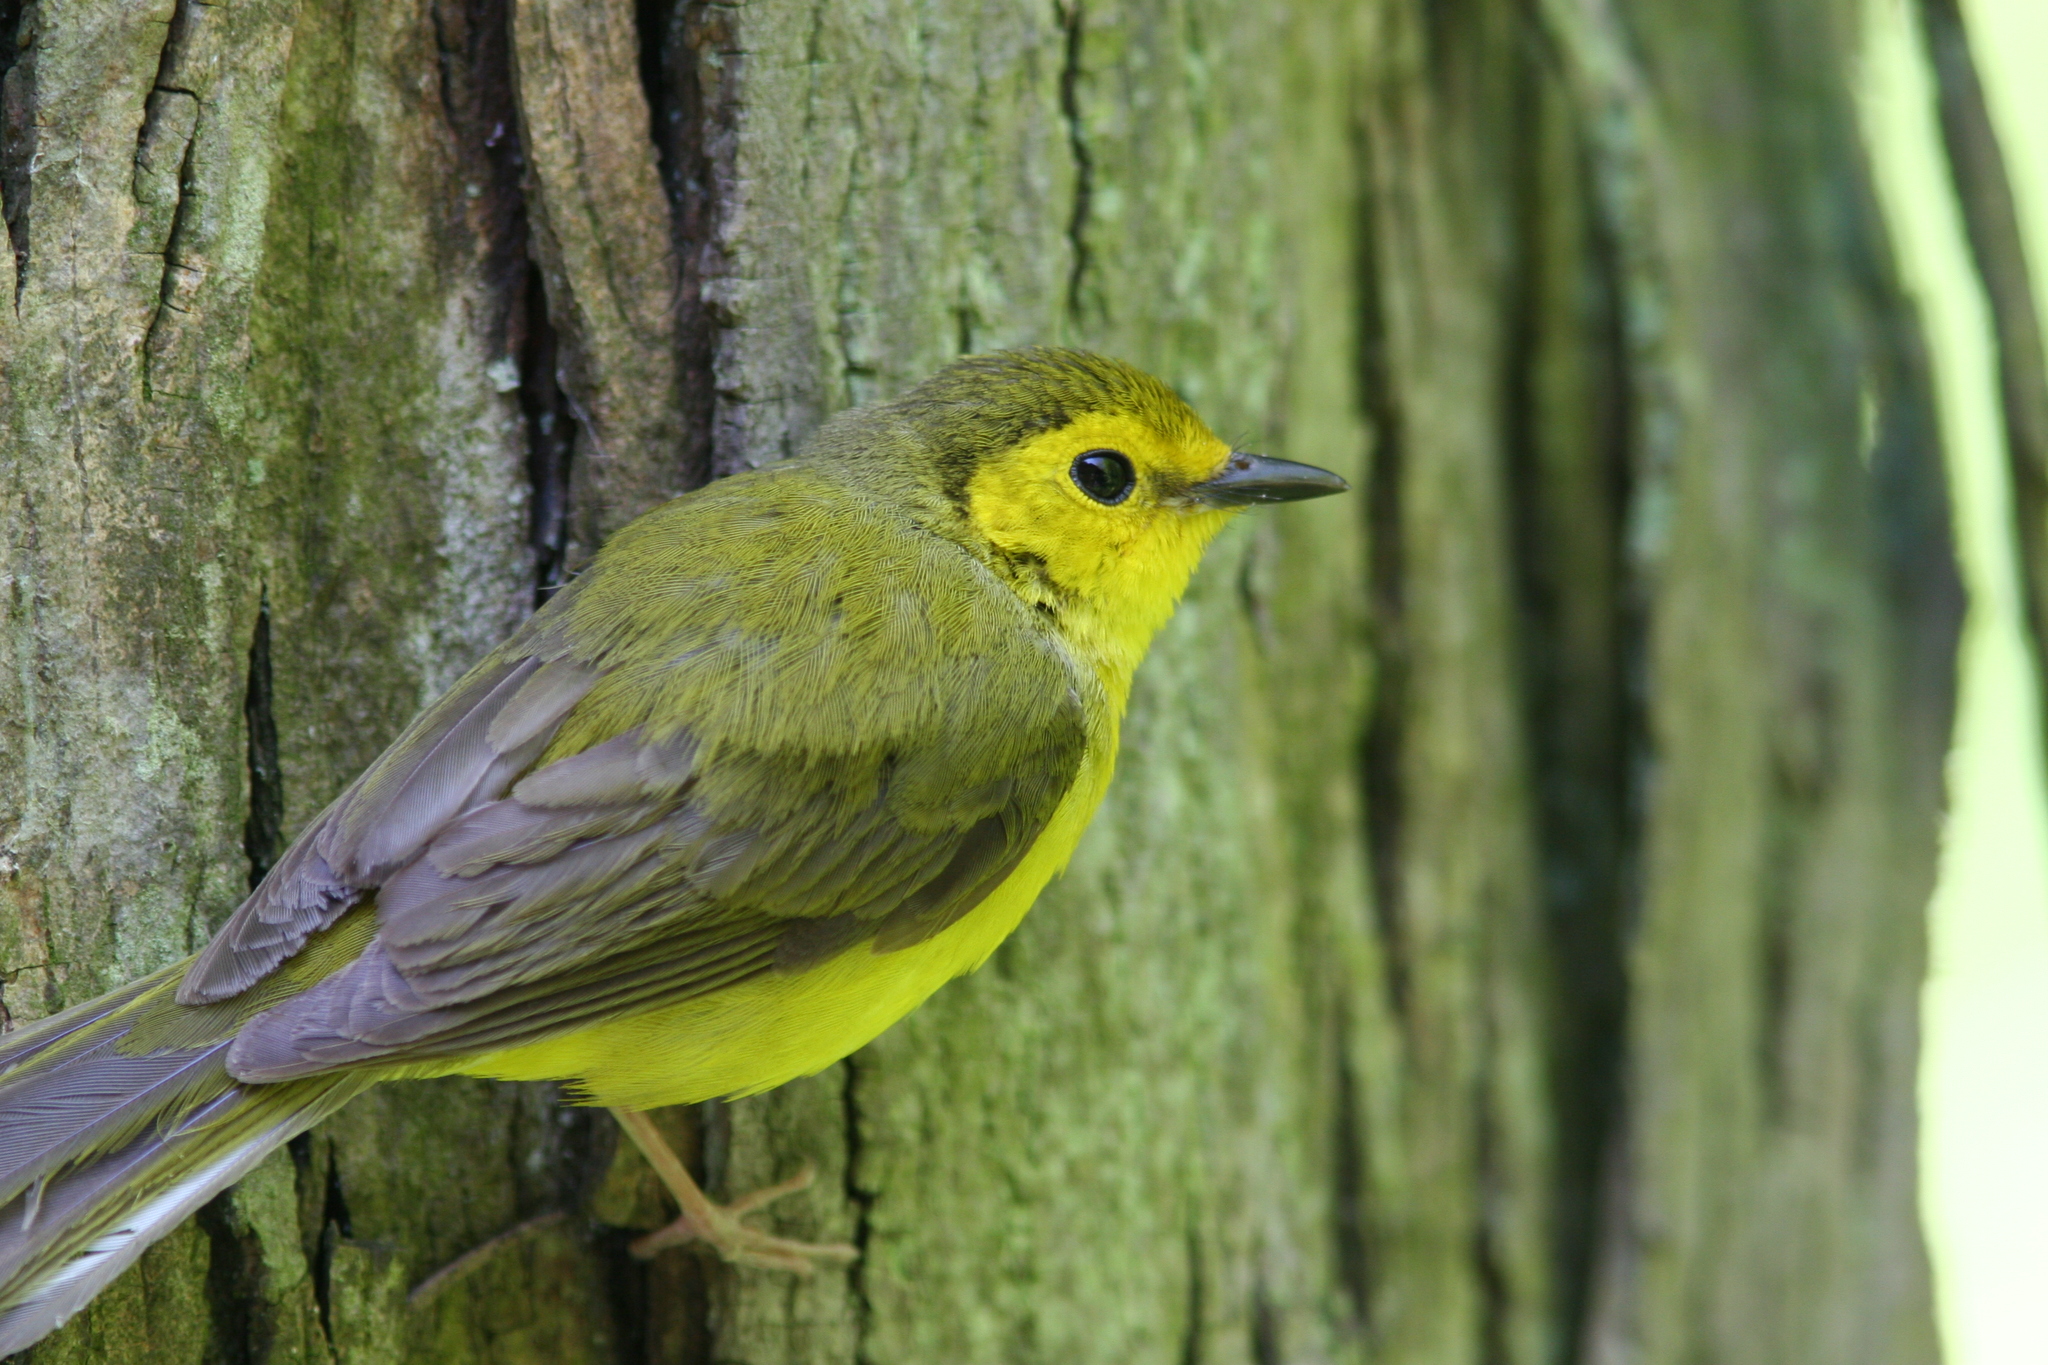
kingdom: Animalia
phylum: Chordata
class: Aves
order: Passeriformes
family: Parulidae
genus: Setophaga
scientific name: Setophaga citrina
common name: Hooded warbler
